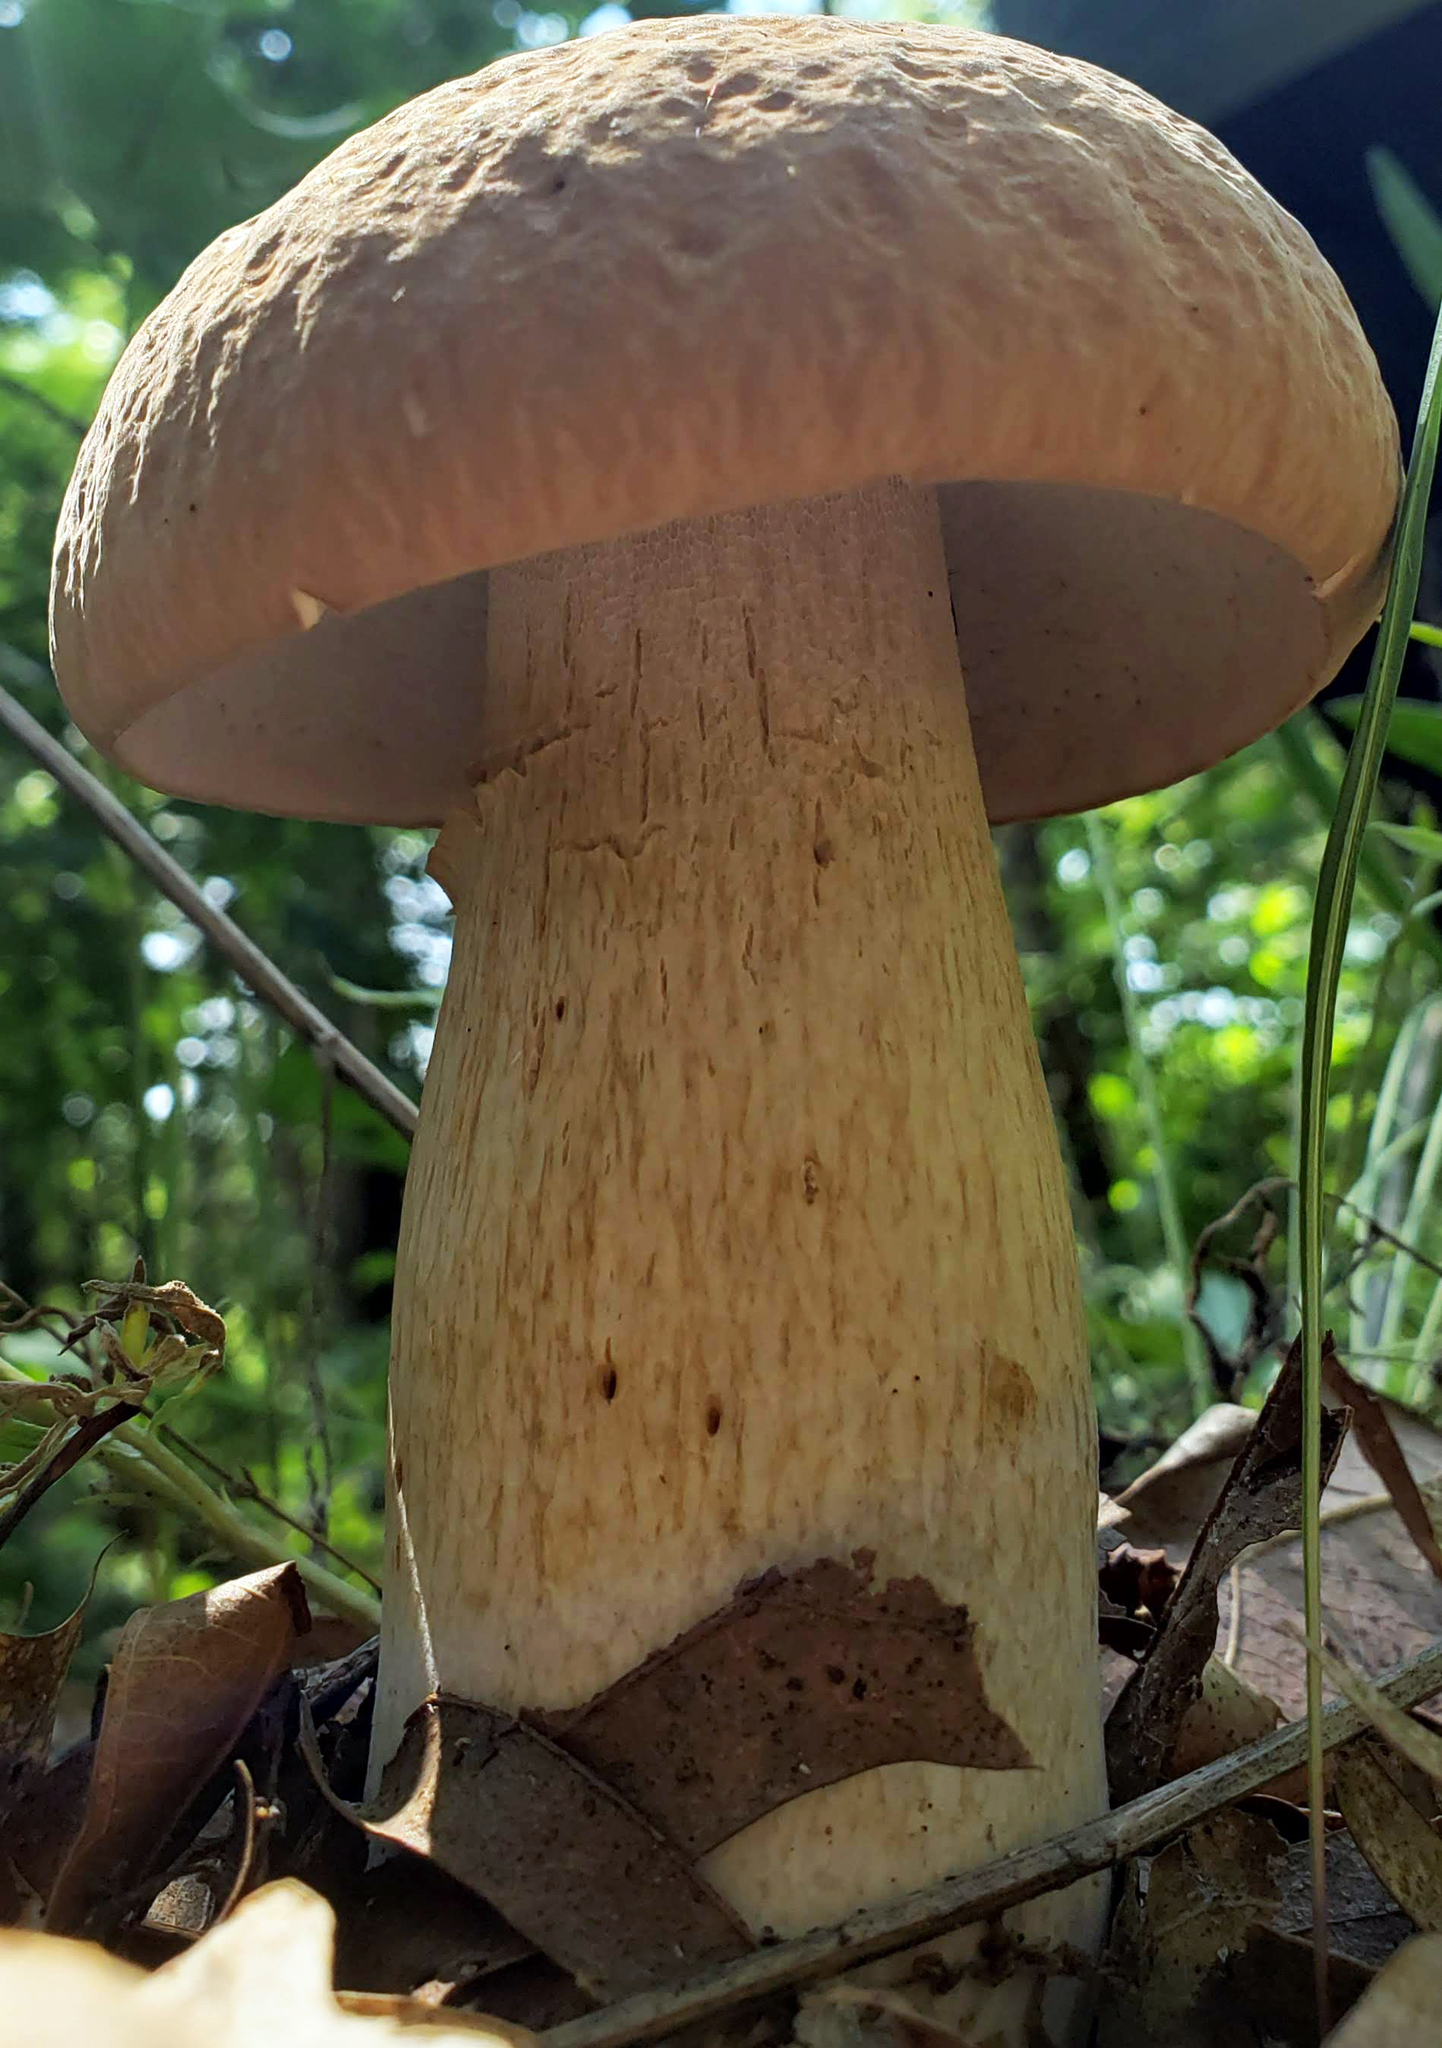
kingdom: Fungi
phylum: Basidiomycota
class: Agaricomycetes
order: Boletales
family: Boletaceae
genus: Boletus
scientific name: Boletus nobilissimus
